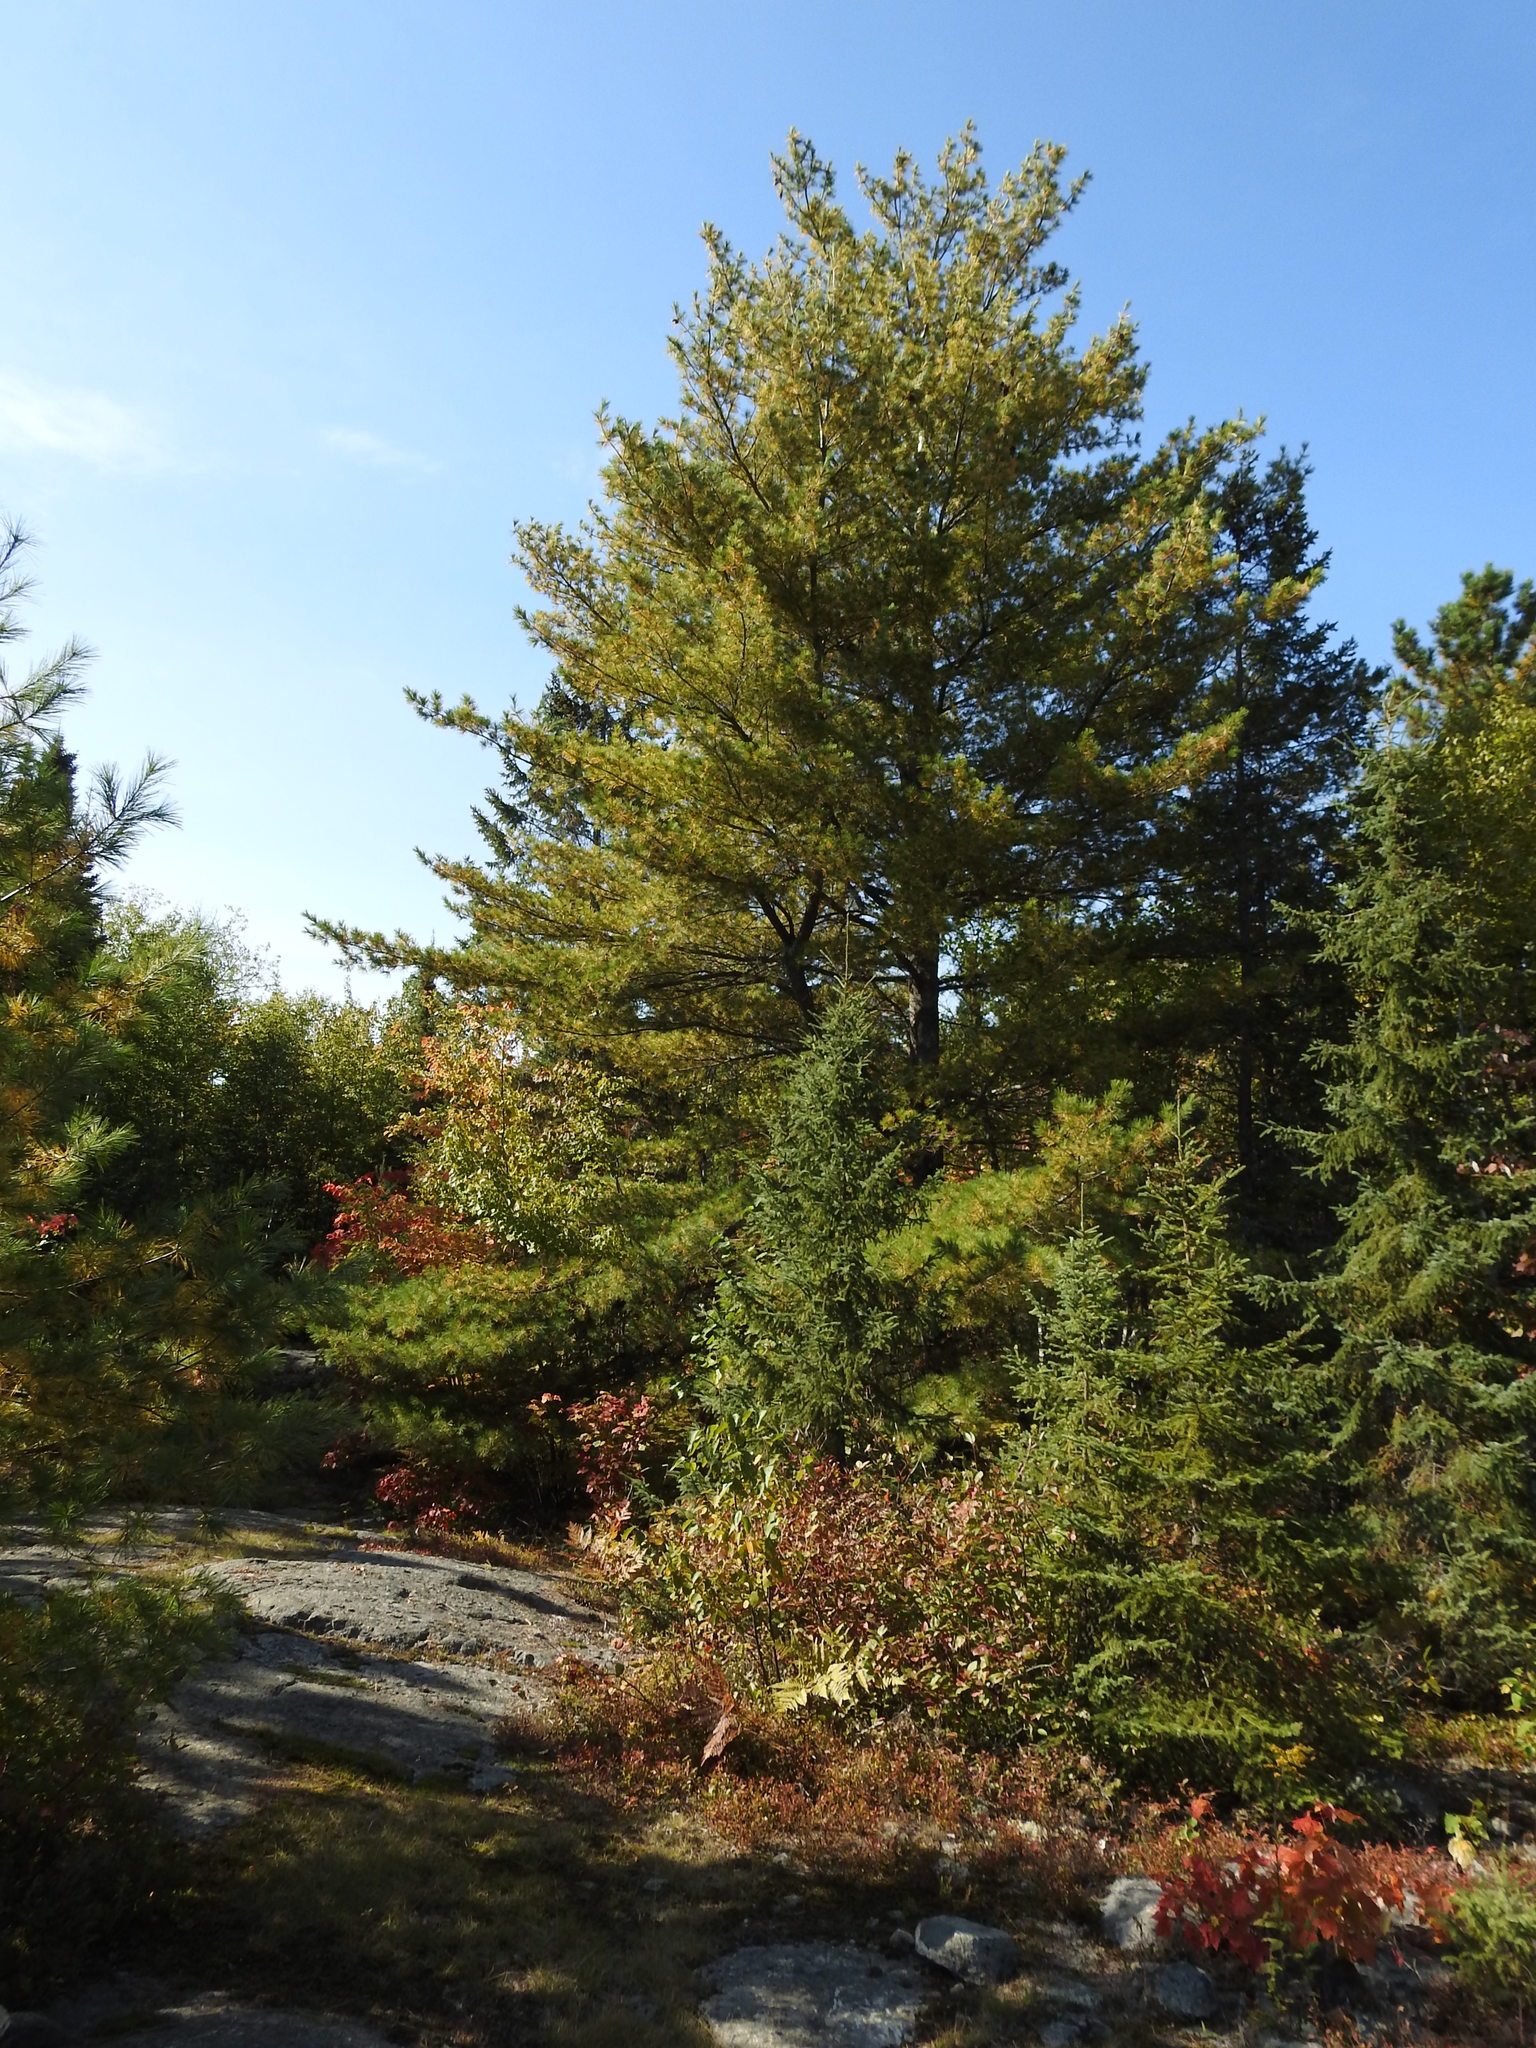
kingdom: Plantae
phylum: Tracheophyta
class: Pinopsida
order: Pinales
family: Pinaceae
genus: Pinus
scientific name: Pinus strobus
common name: Weymouth pine
